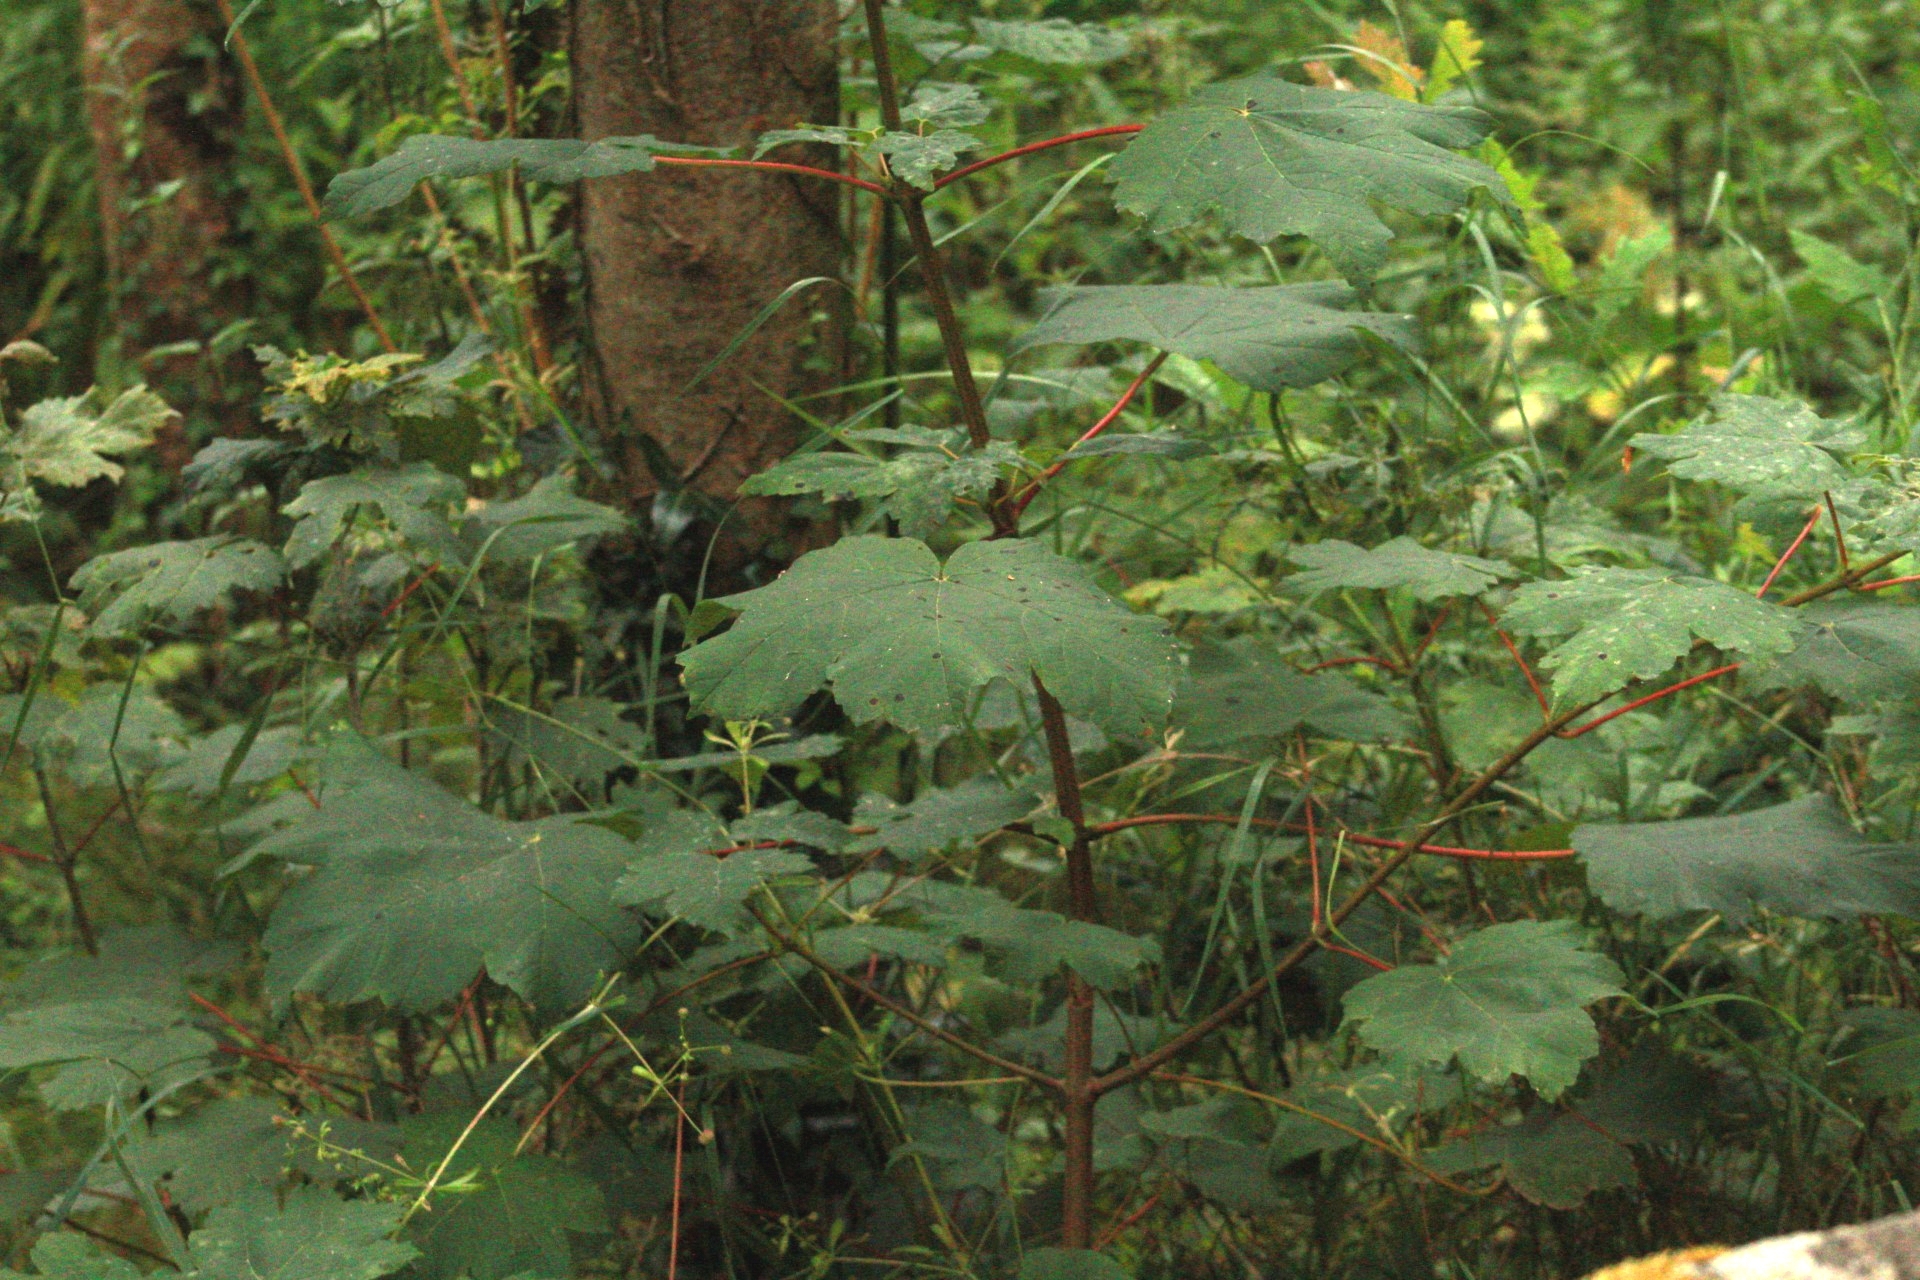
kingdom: Plantae
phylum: Tracheophyta
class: Magnoliopsida
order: Sapindales
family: Sapindaceae
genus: Acer
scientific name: Acer pseudoplatanus
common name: Sycamore
